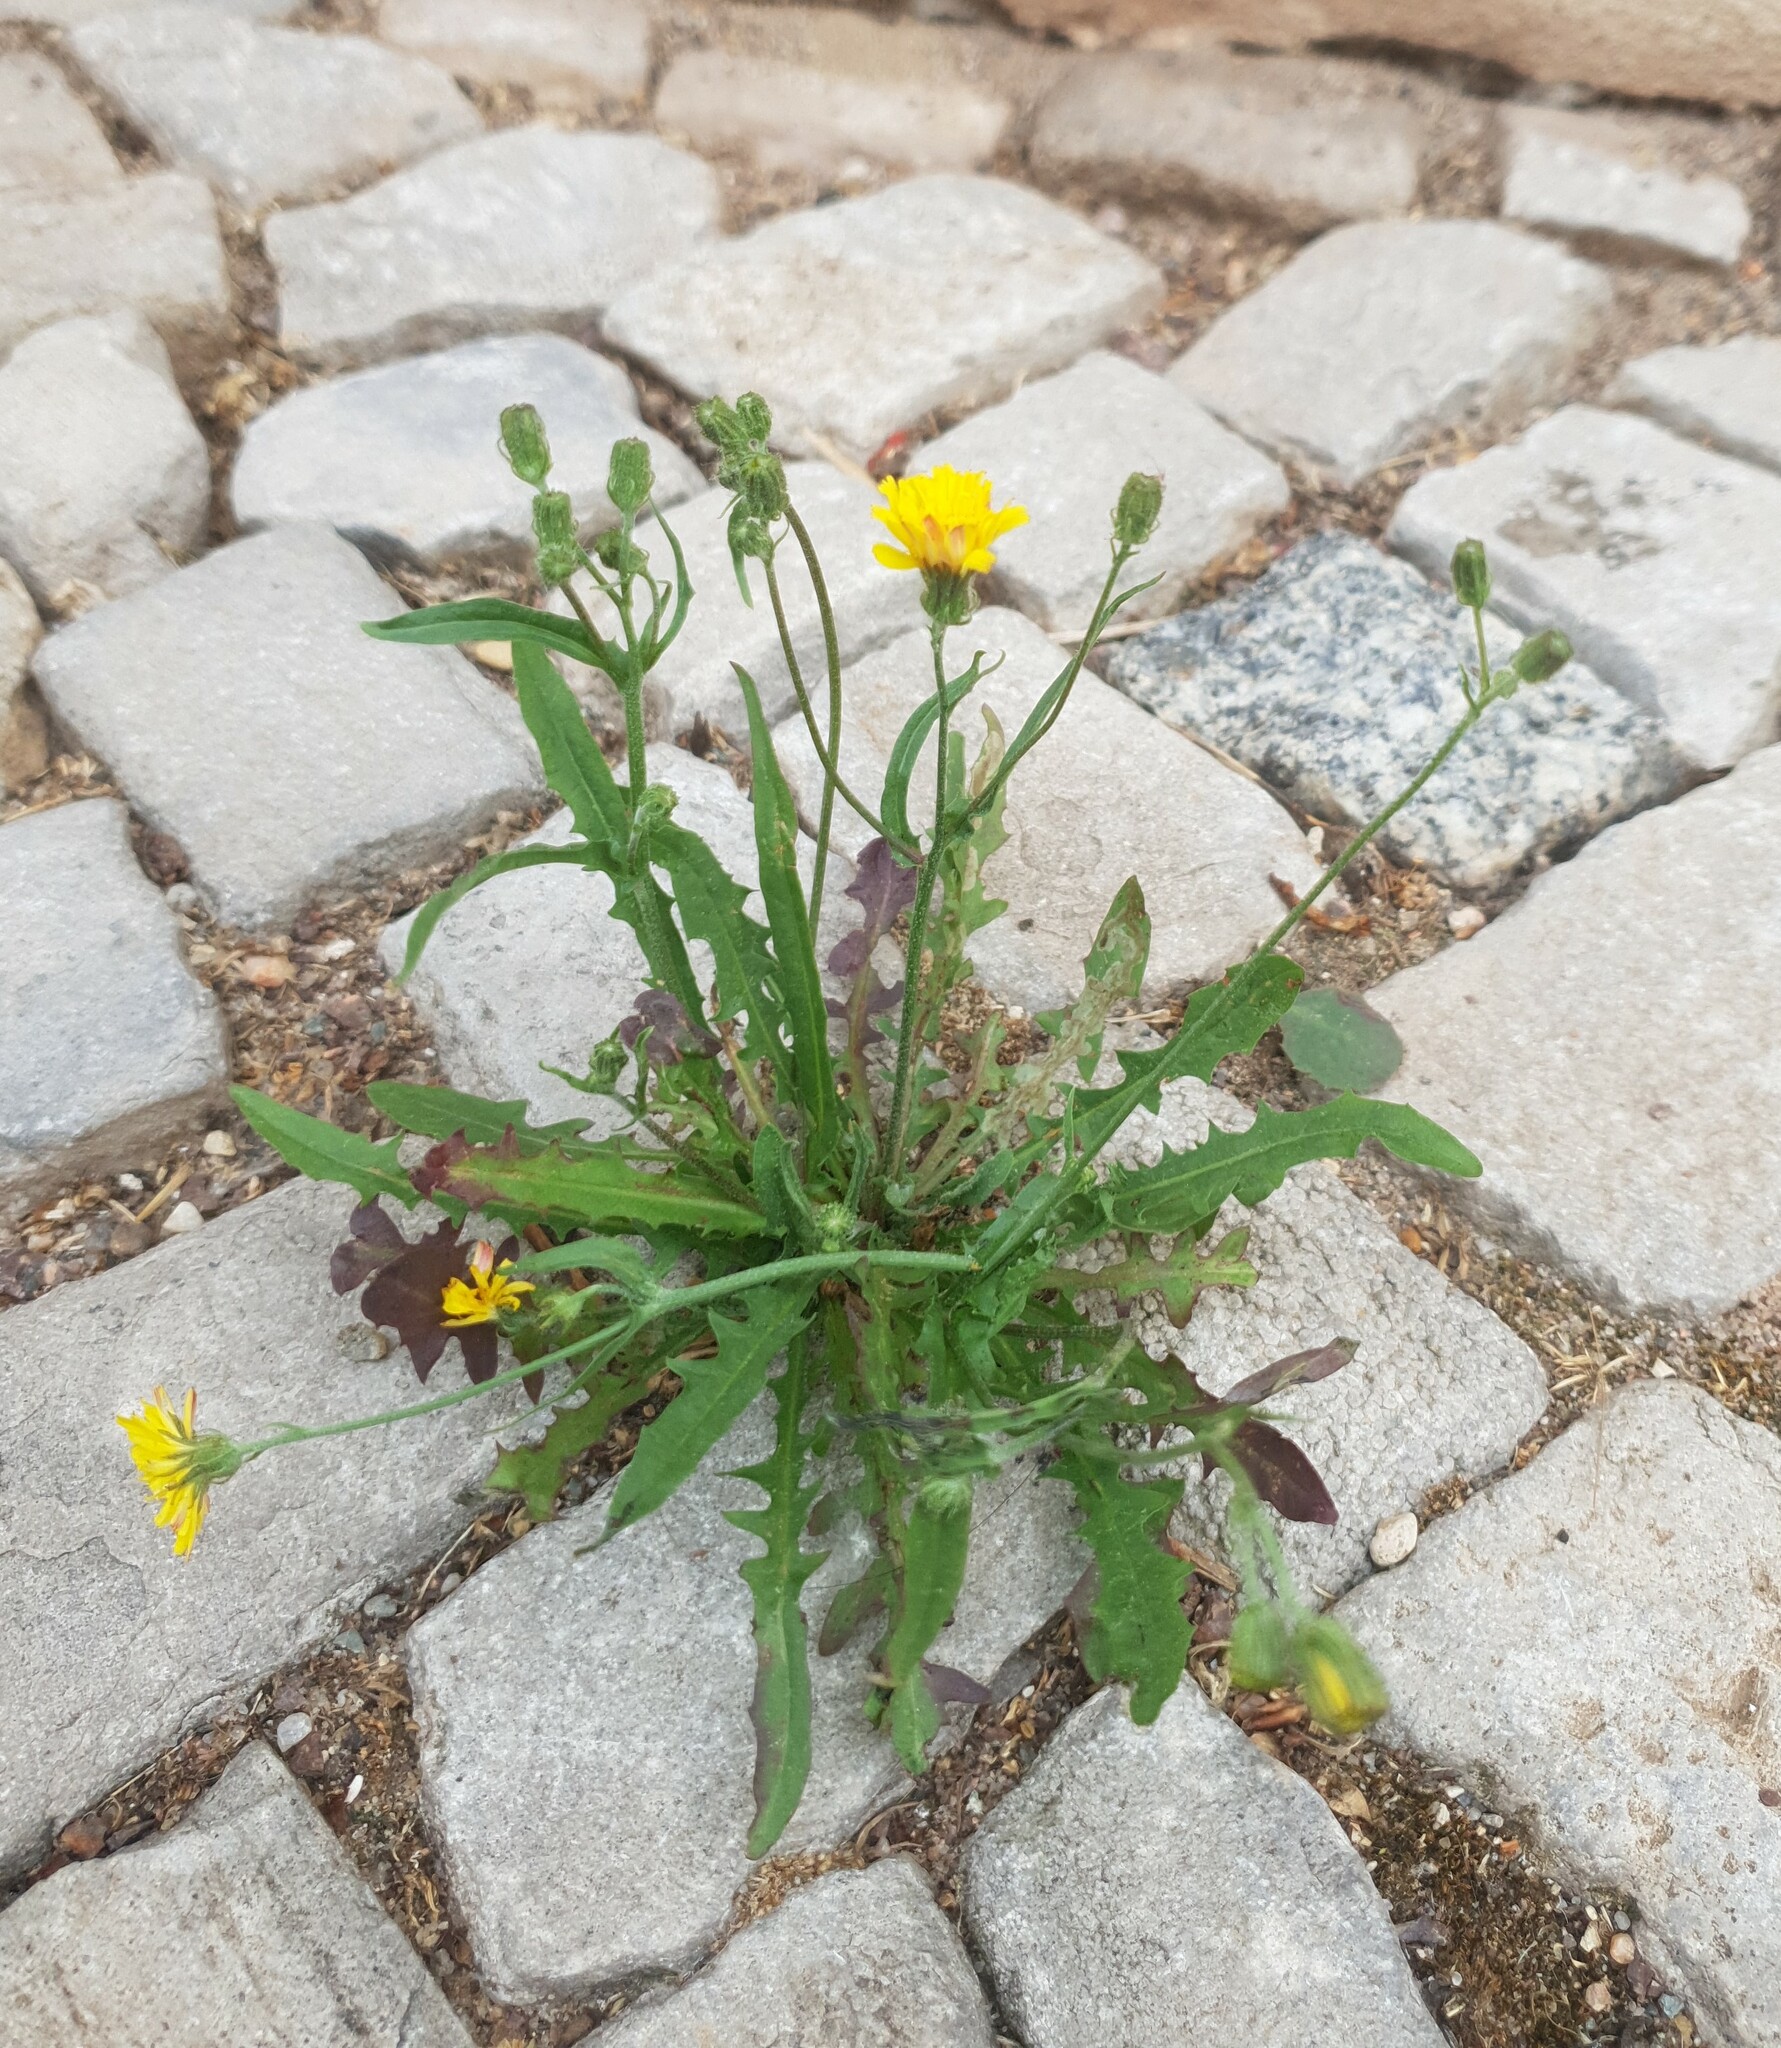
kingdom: Plantae
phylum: Tracheophyta
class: Magnoliopsida
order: Asterales
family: Asteraceae
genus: Crepis
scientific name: Crepis capillaris
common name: Smooth hawksbeard
